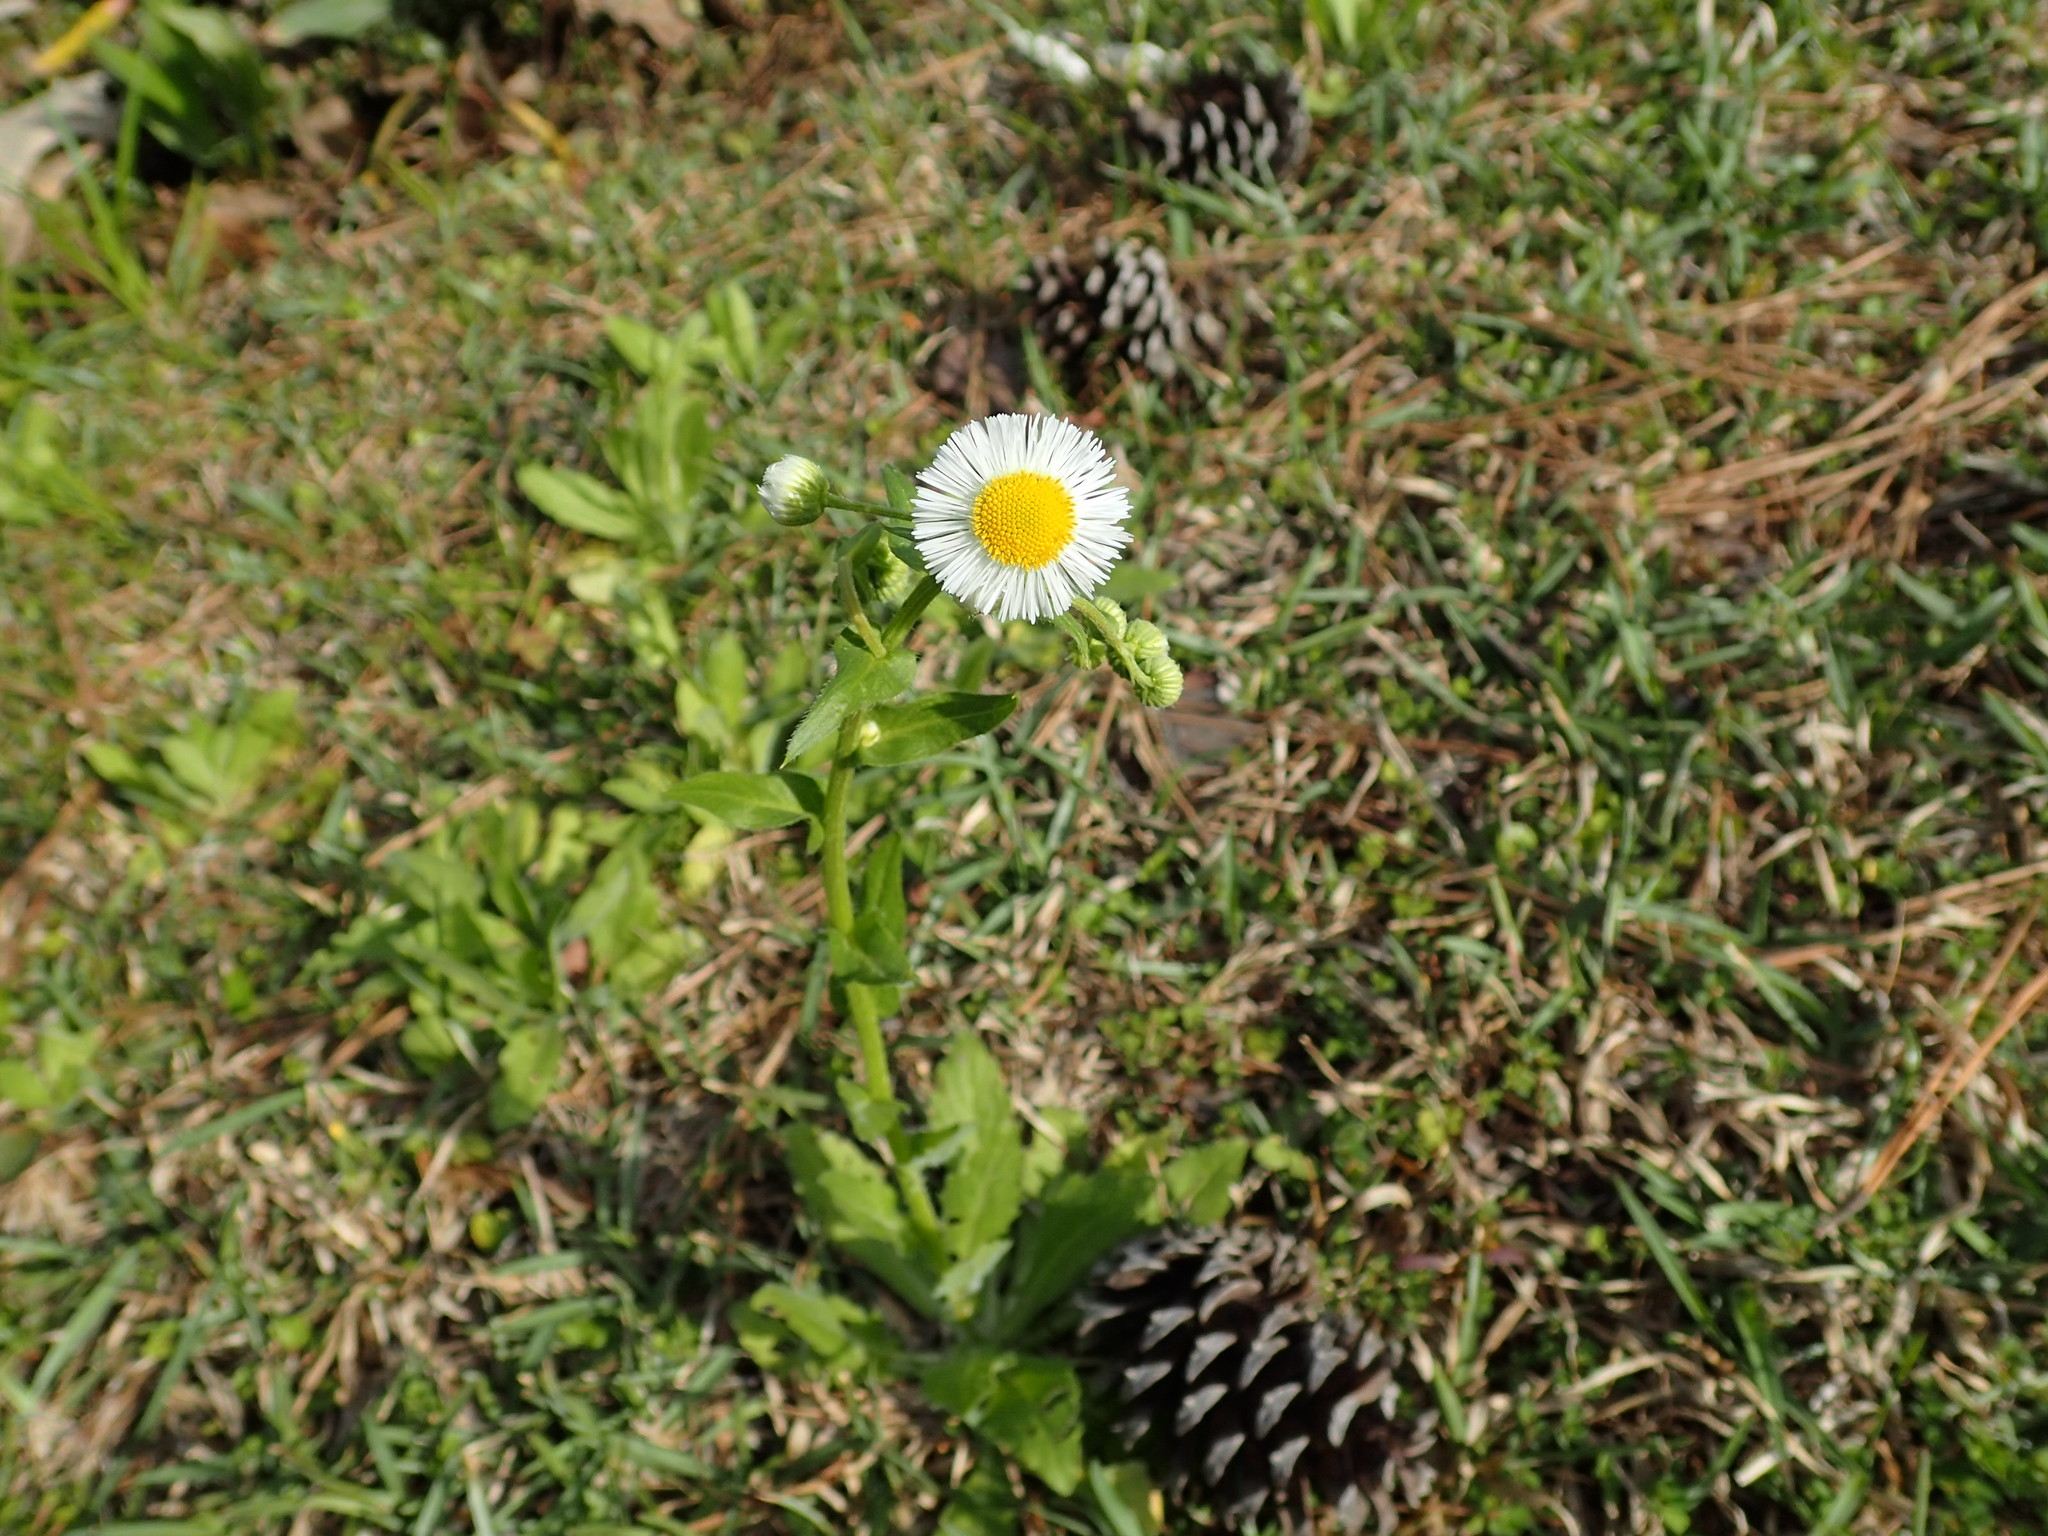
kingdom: Plantae
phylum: Tracheophyta
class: Magnoliopsida
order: Asterales
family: Asteraceae
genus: Erigeron
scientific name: Erigeron philadelphicus
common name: Robin's-plantain
